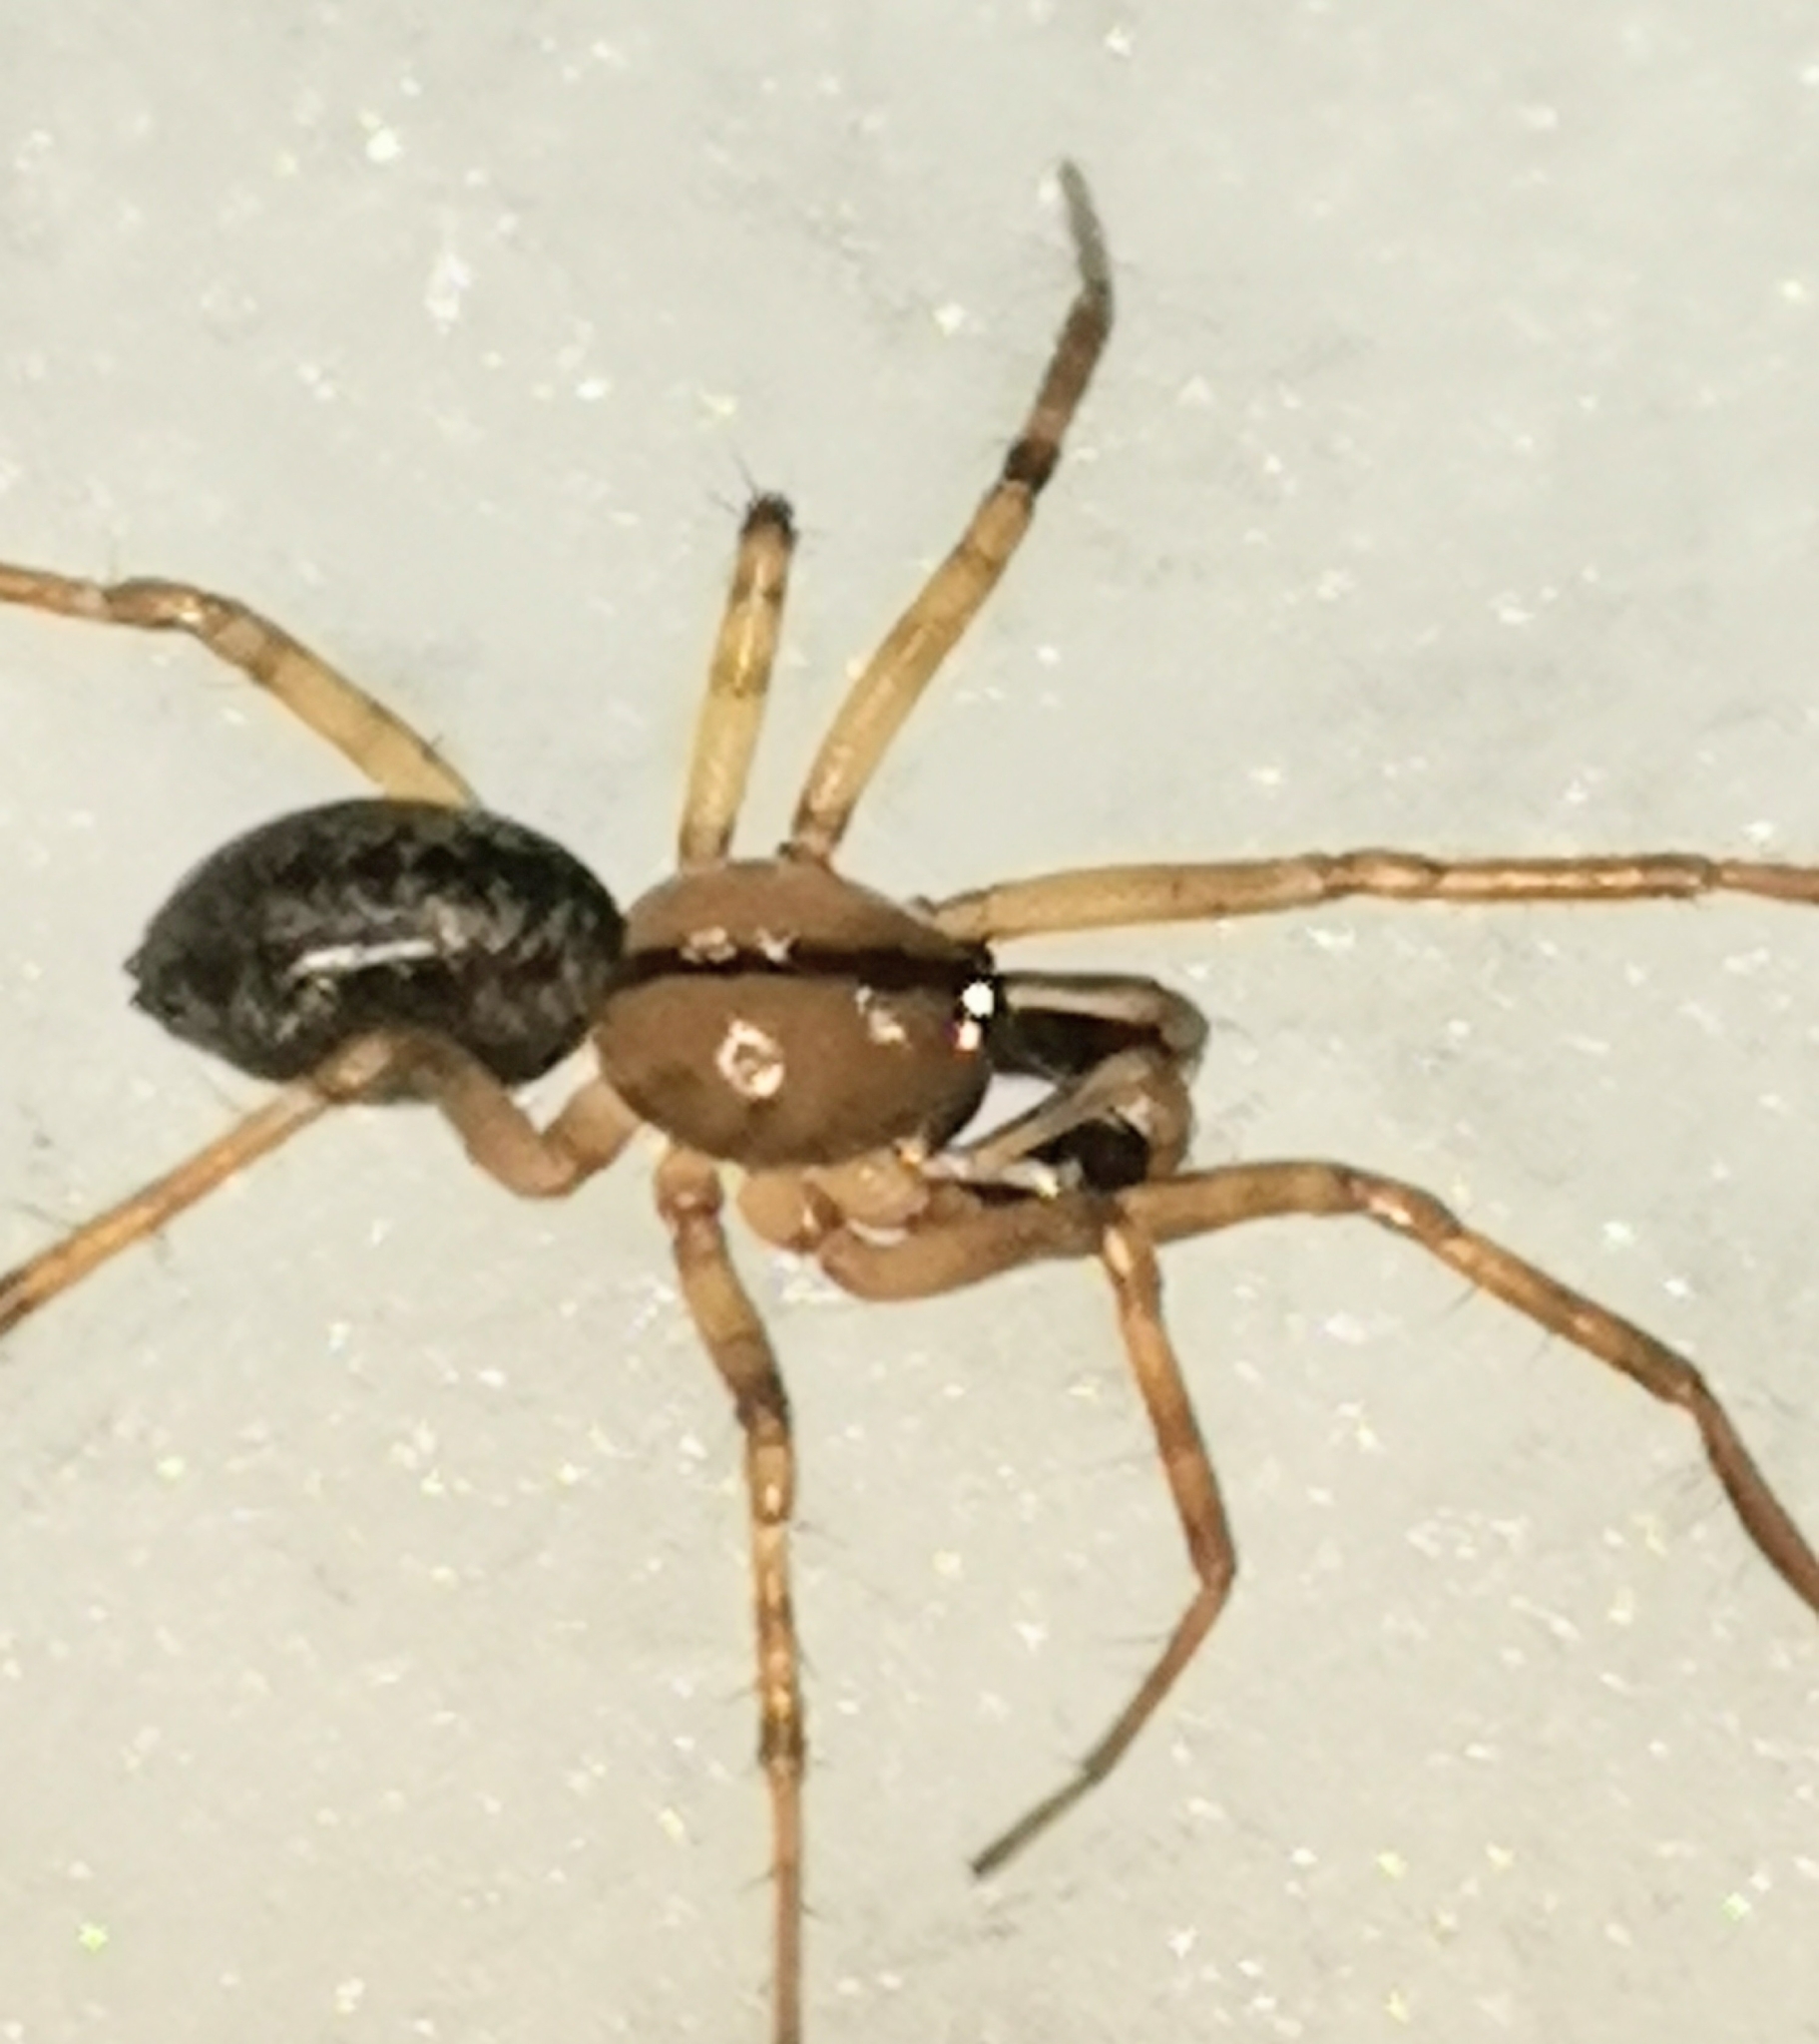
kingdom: Animalia
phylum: Arthropoda
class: Arachnida
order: Araneae
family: Linyphiidae
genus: Stemonyphantes
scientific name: Stemonyphantes lineatus
